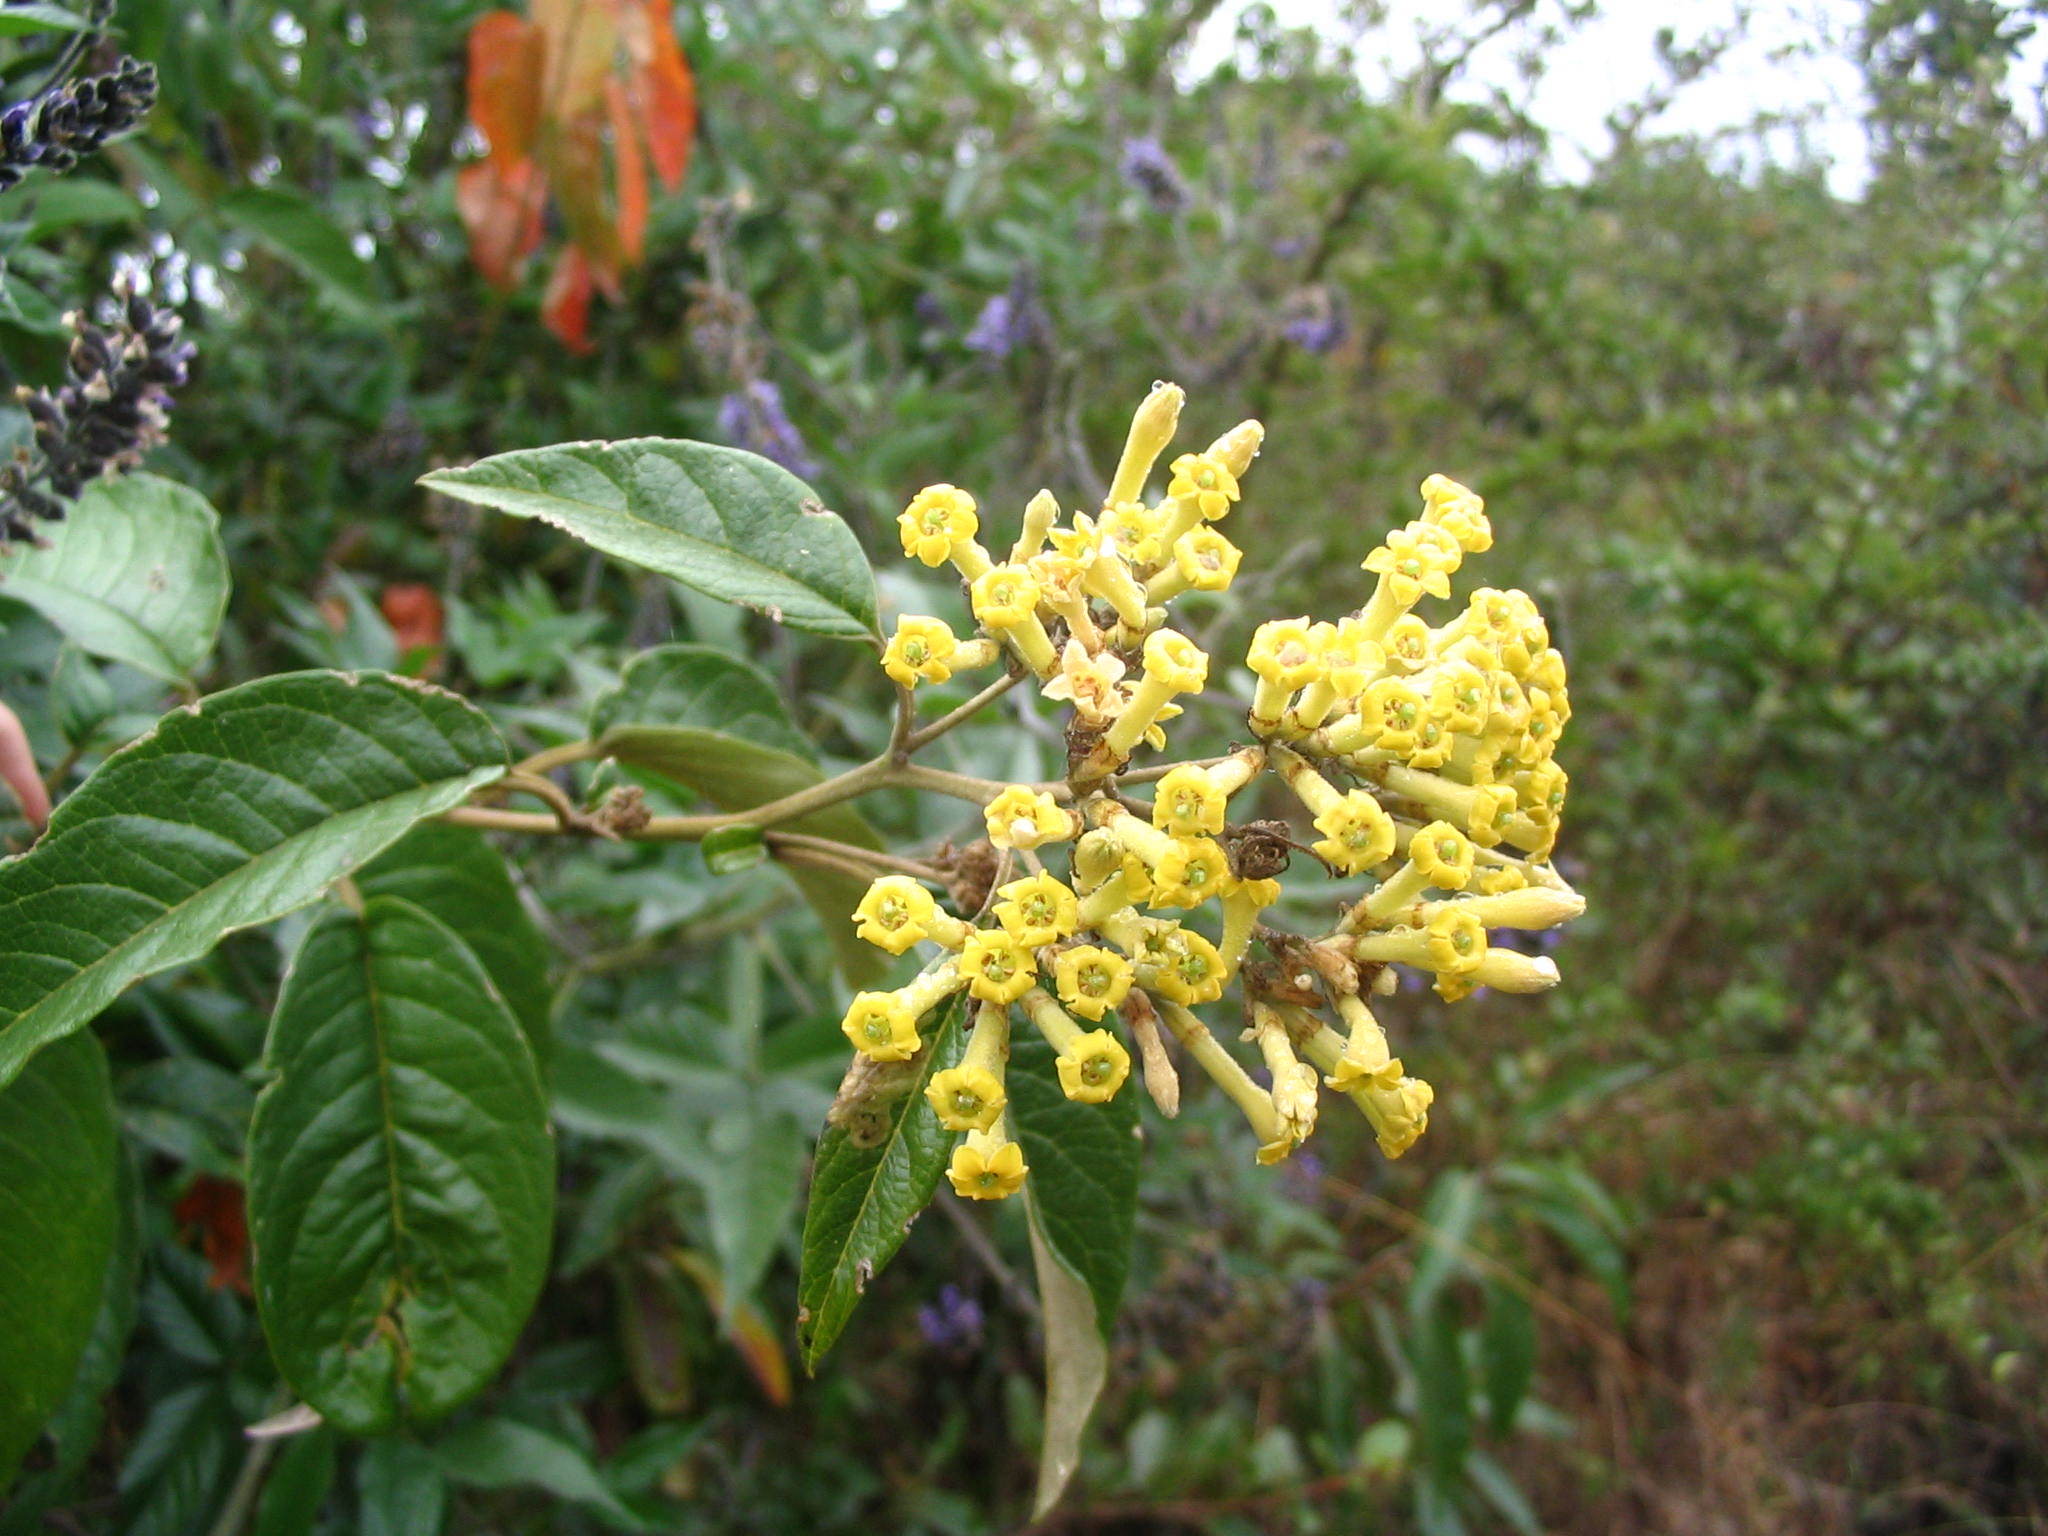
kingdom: Plantae
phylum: Tracheophyta
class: Magnoliopsida
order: Solanales
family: Solanaceae
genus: Sessea
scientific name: Sessea stipulata
